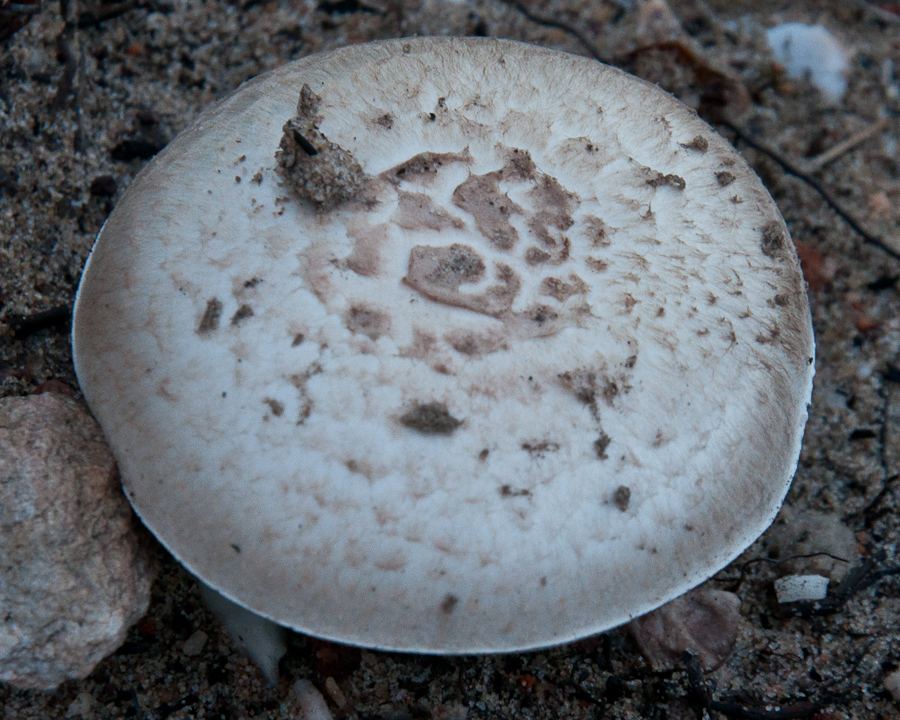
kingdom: Fungi
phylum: Basidiomycota
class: Agaricomycetes
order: Agaricales
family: Agaricaceae
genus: Agaricus
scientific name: Agaricus campestris
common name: Field mushroom
